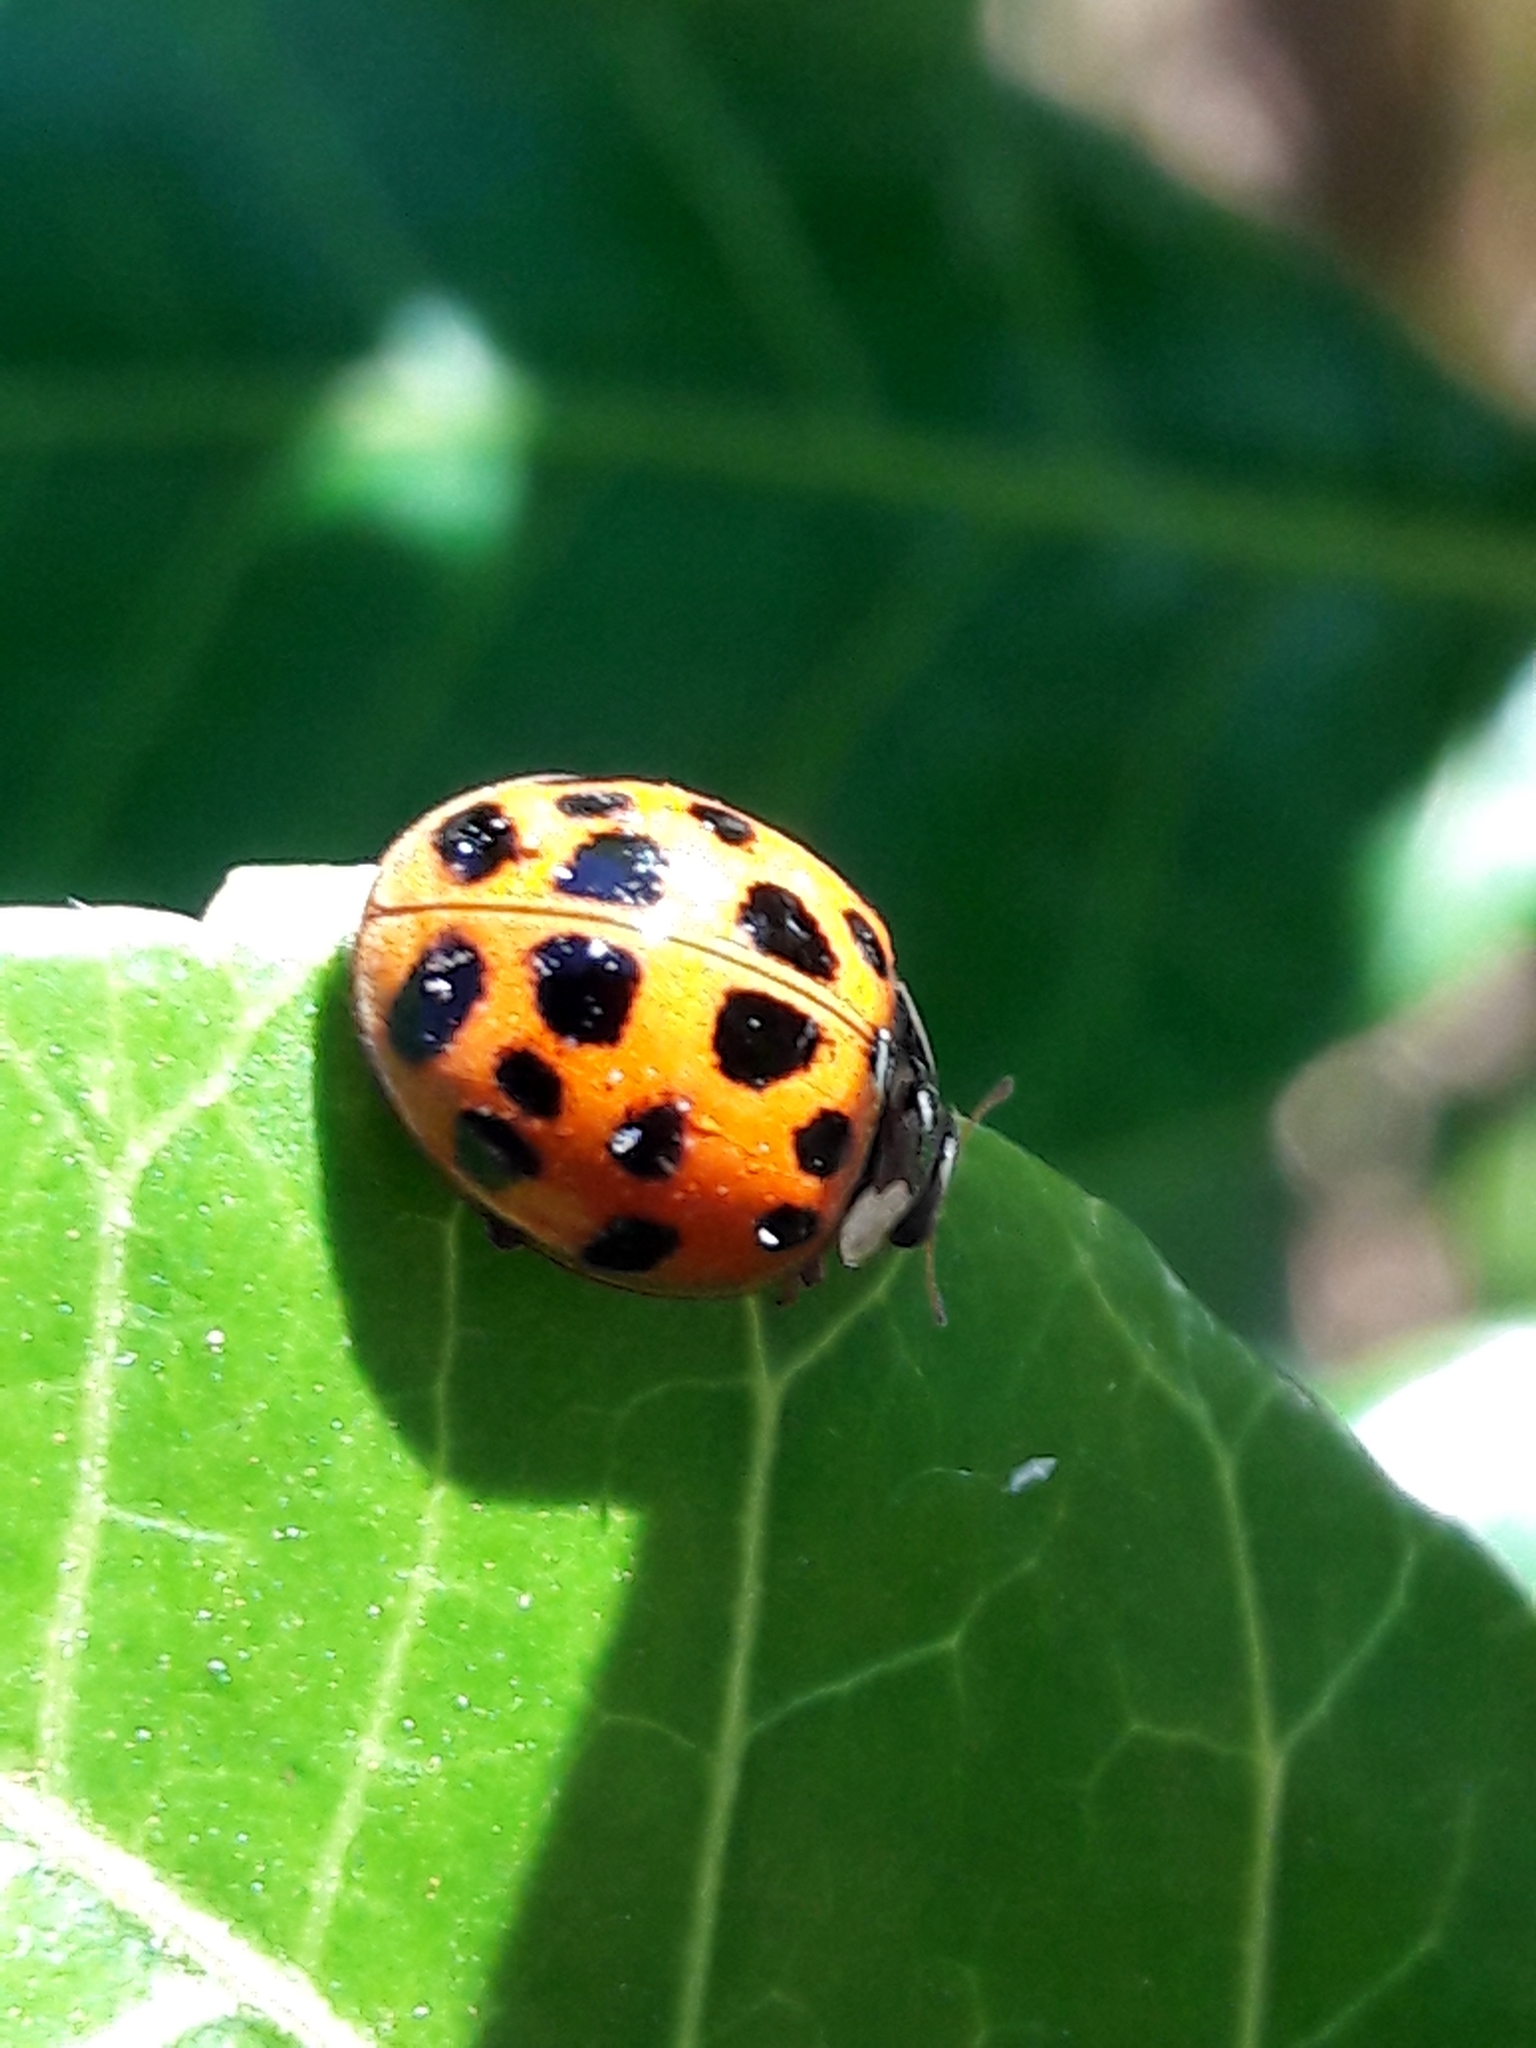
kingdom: Animalia
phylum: Arthropoda
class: Insecta
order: Coleoptera
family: Coccinellidae
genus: Harmonia
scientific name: Harmonia axyridis
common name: Harlequin ladybird
